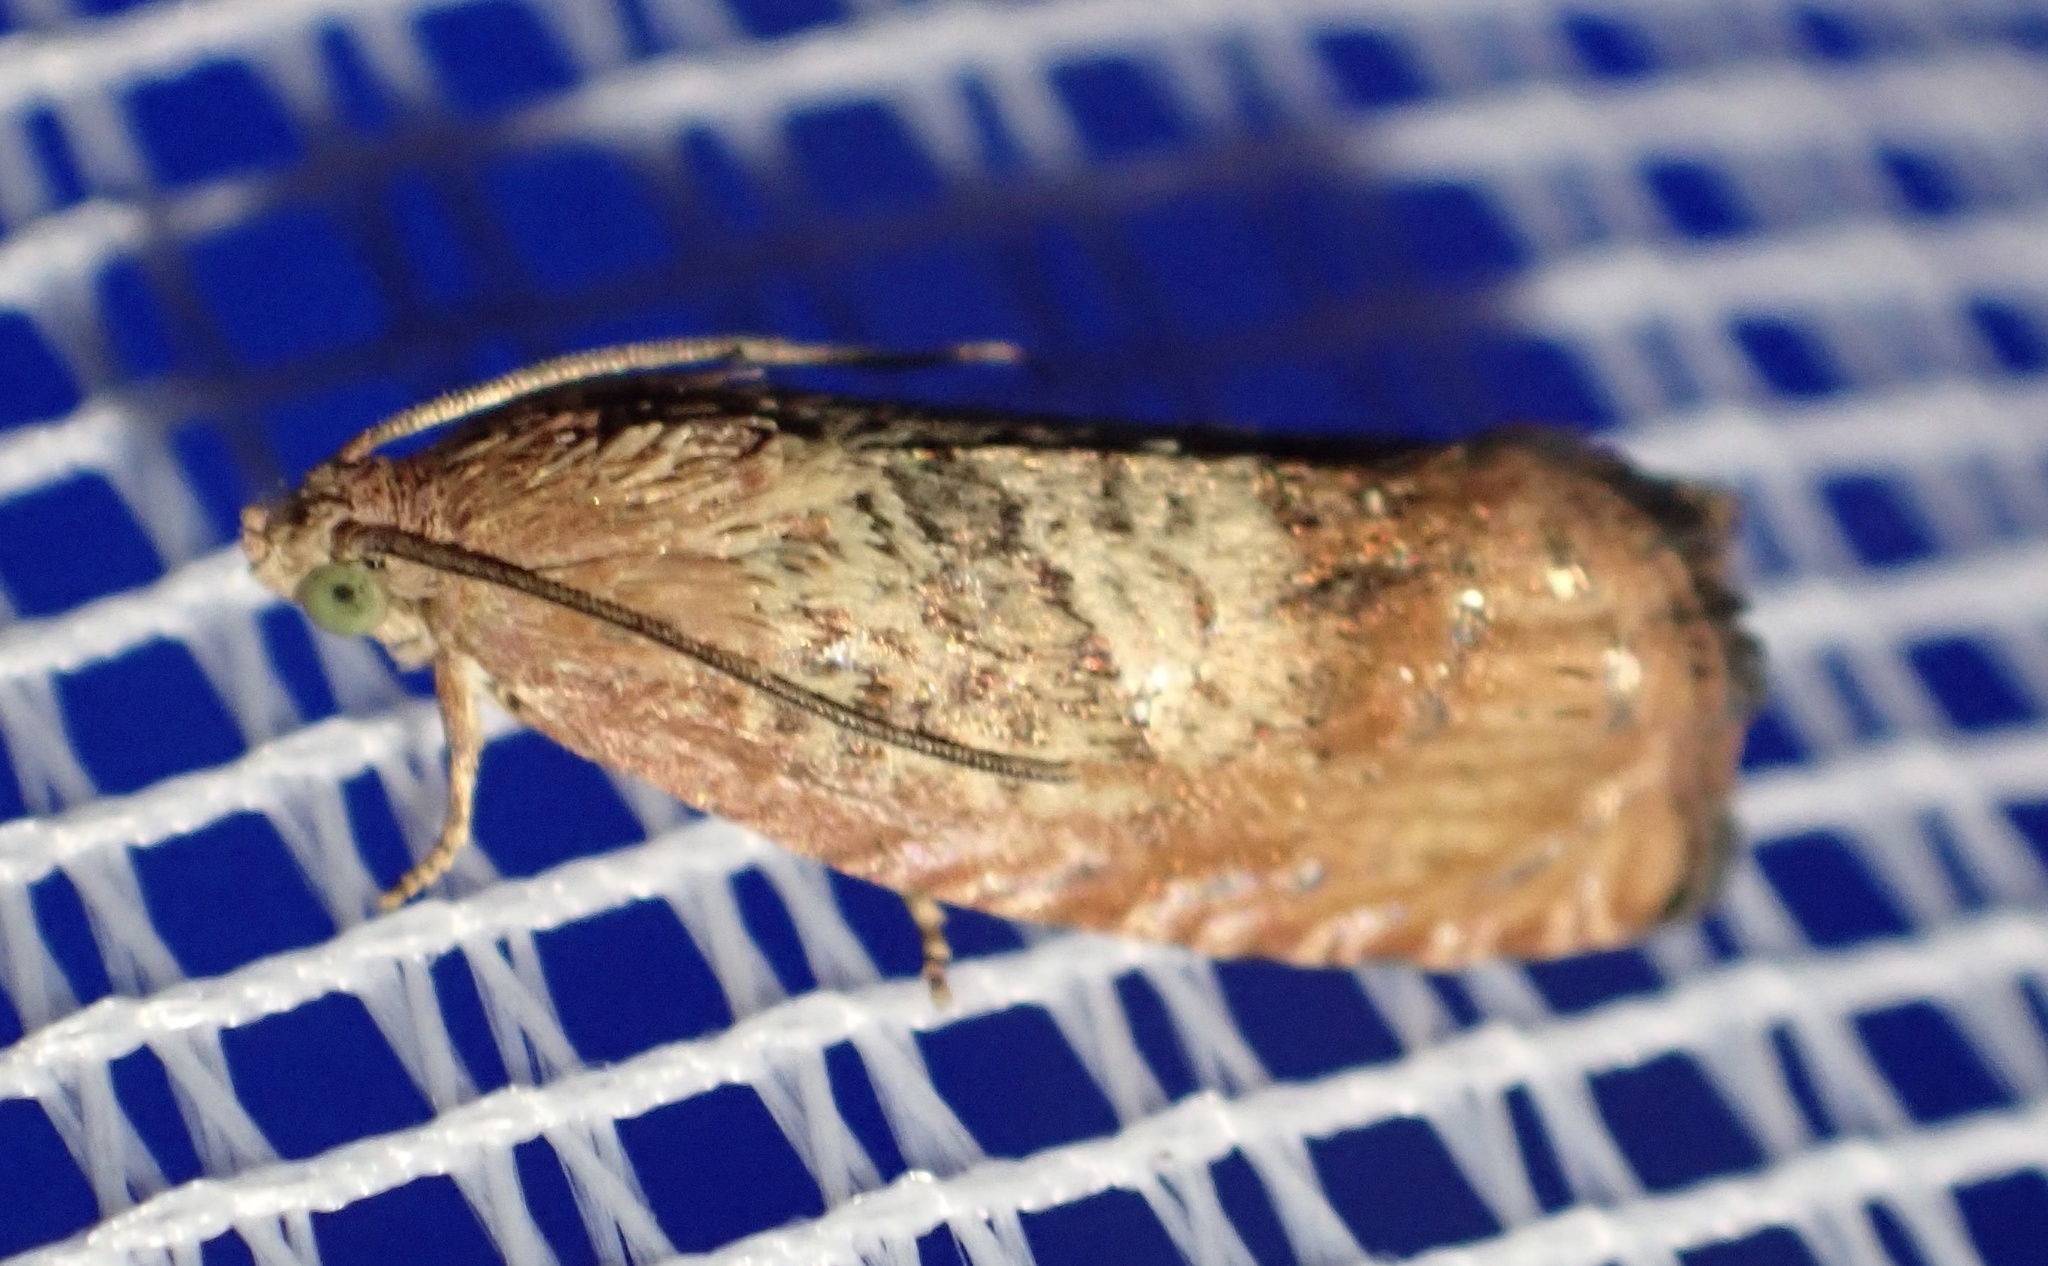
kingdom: Animalia
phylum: Arthropoda
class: Insecta
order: Lepidoptera
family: Tortricidae
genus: Cydia
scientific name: Cydia amplana
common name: Vagrant piercer
